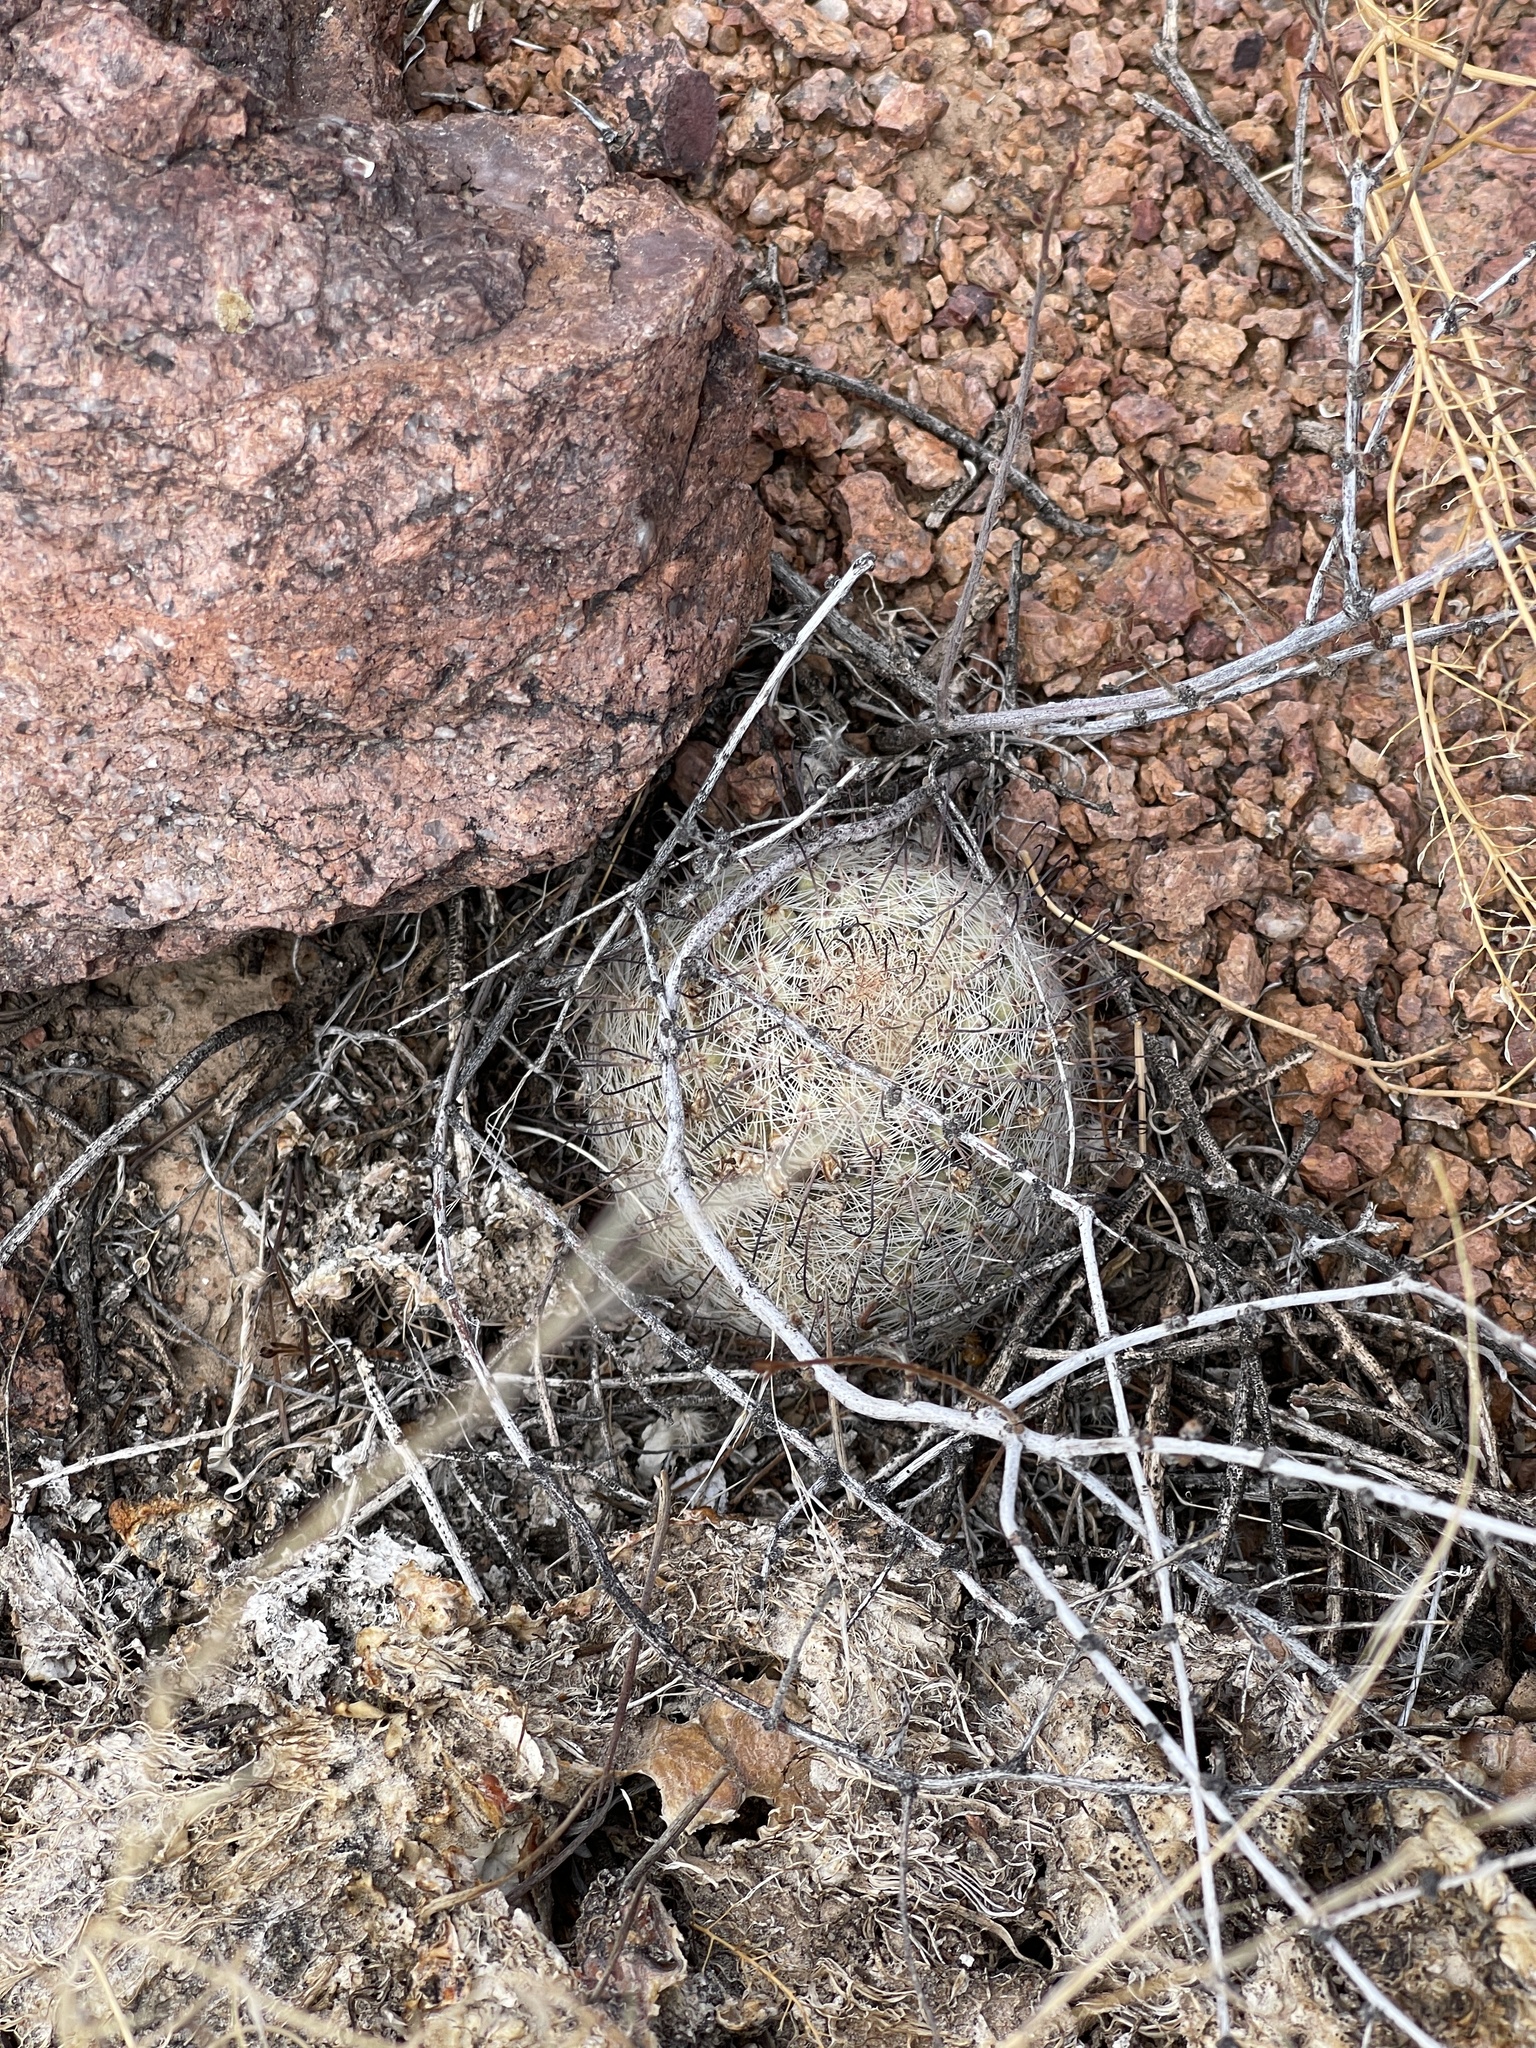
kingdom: Plantae
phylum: Tracheophyta
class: Magnoliopsida
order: Caryophyllales
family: Cactaceae
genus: Cochemiea
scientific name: Cochemiea grahamii
